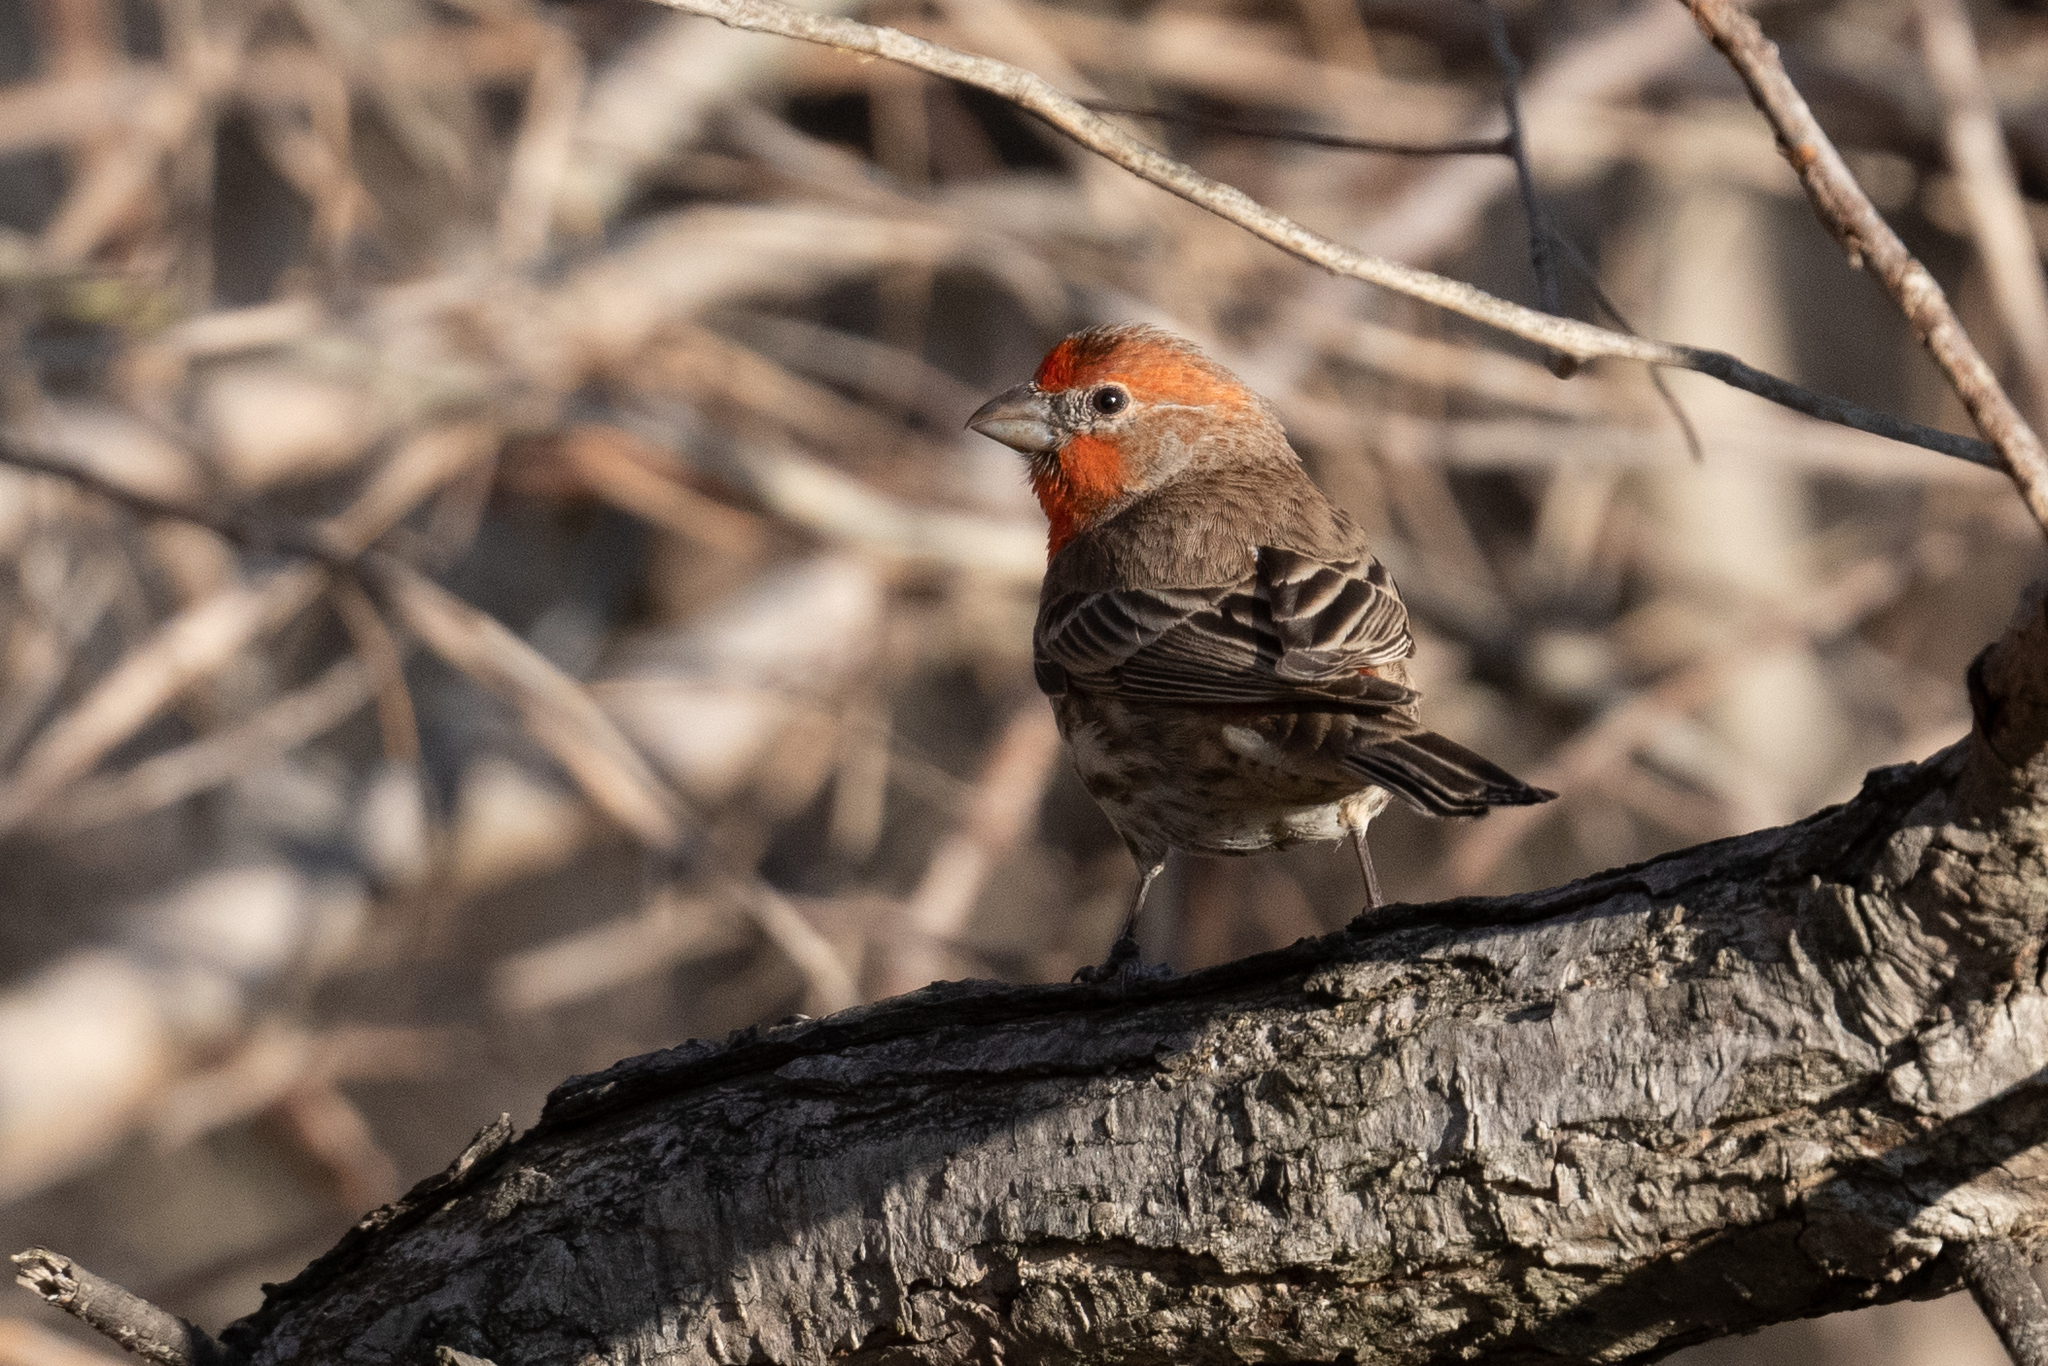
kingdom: Animalia
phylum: Chordata
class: Aves
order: Passeriformes
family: Fringillidae
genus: Haemorhous
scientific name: Haemorhous mexicanus
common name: House finch
